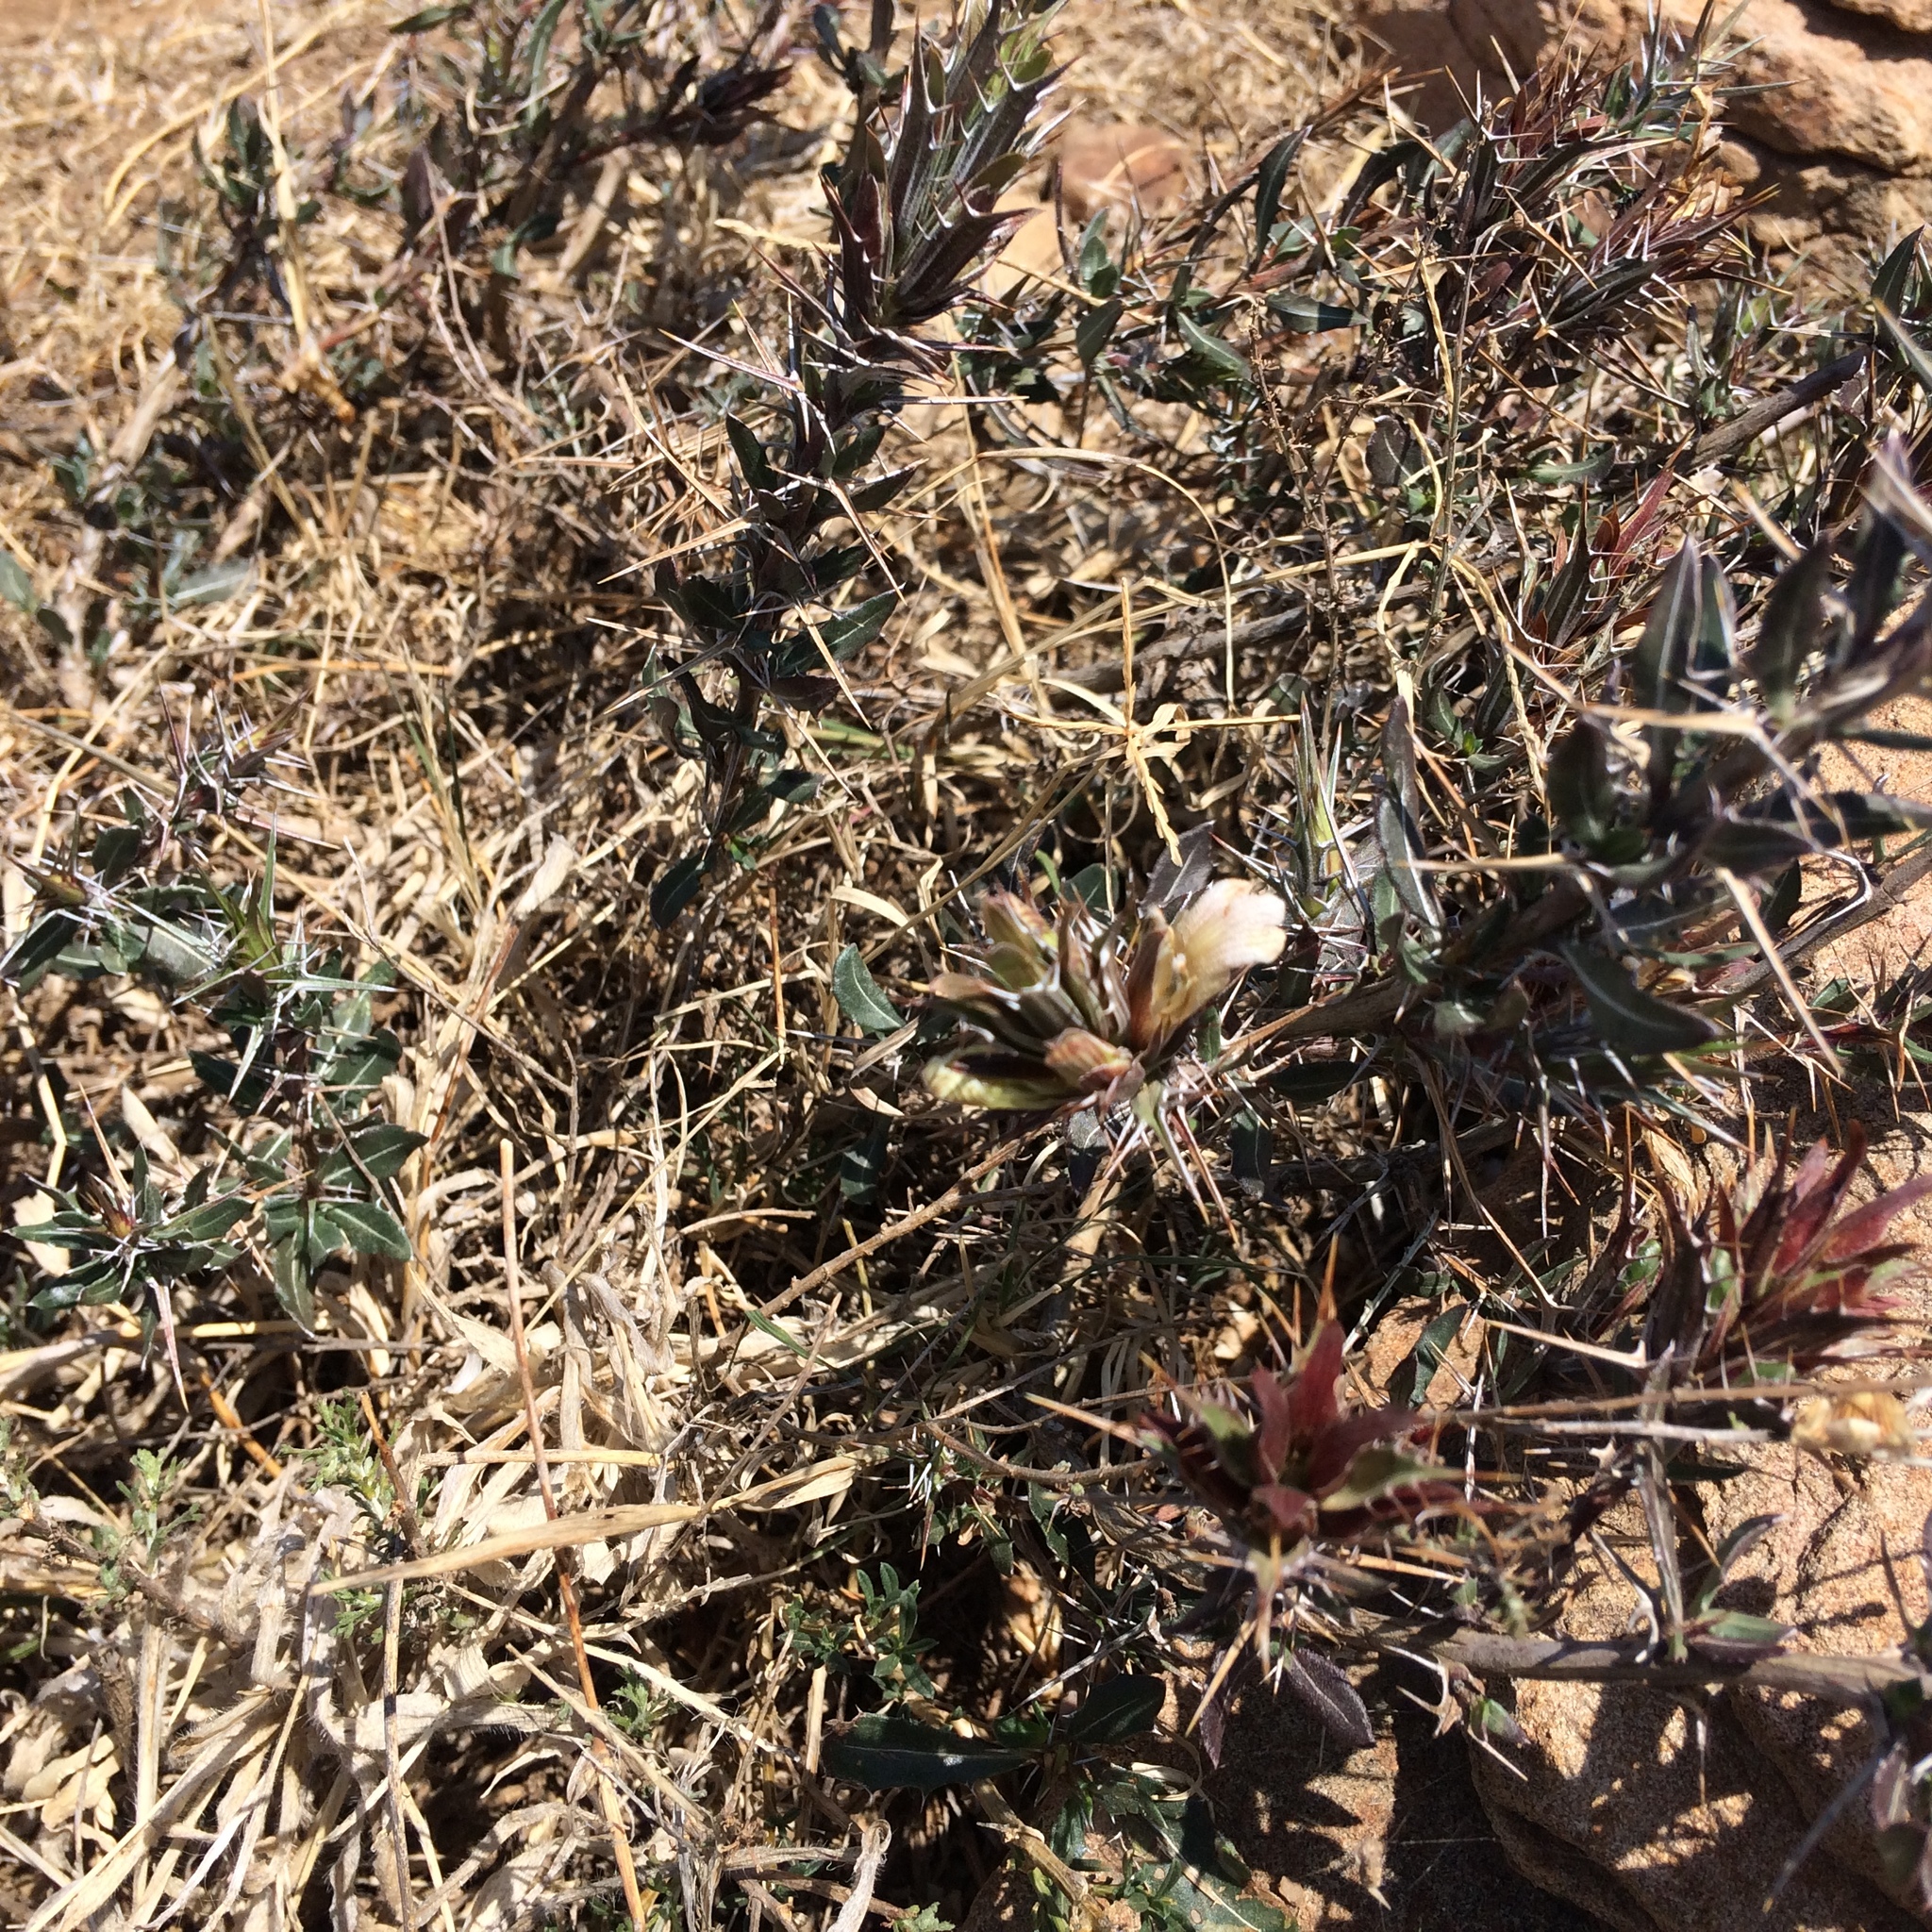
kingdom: Plantae
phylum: Tracheophyta
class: Magnoliopsida
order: Lamiales
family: Acanthaceae
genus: Blepharis
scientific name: Blepharis capensis
